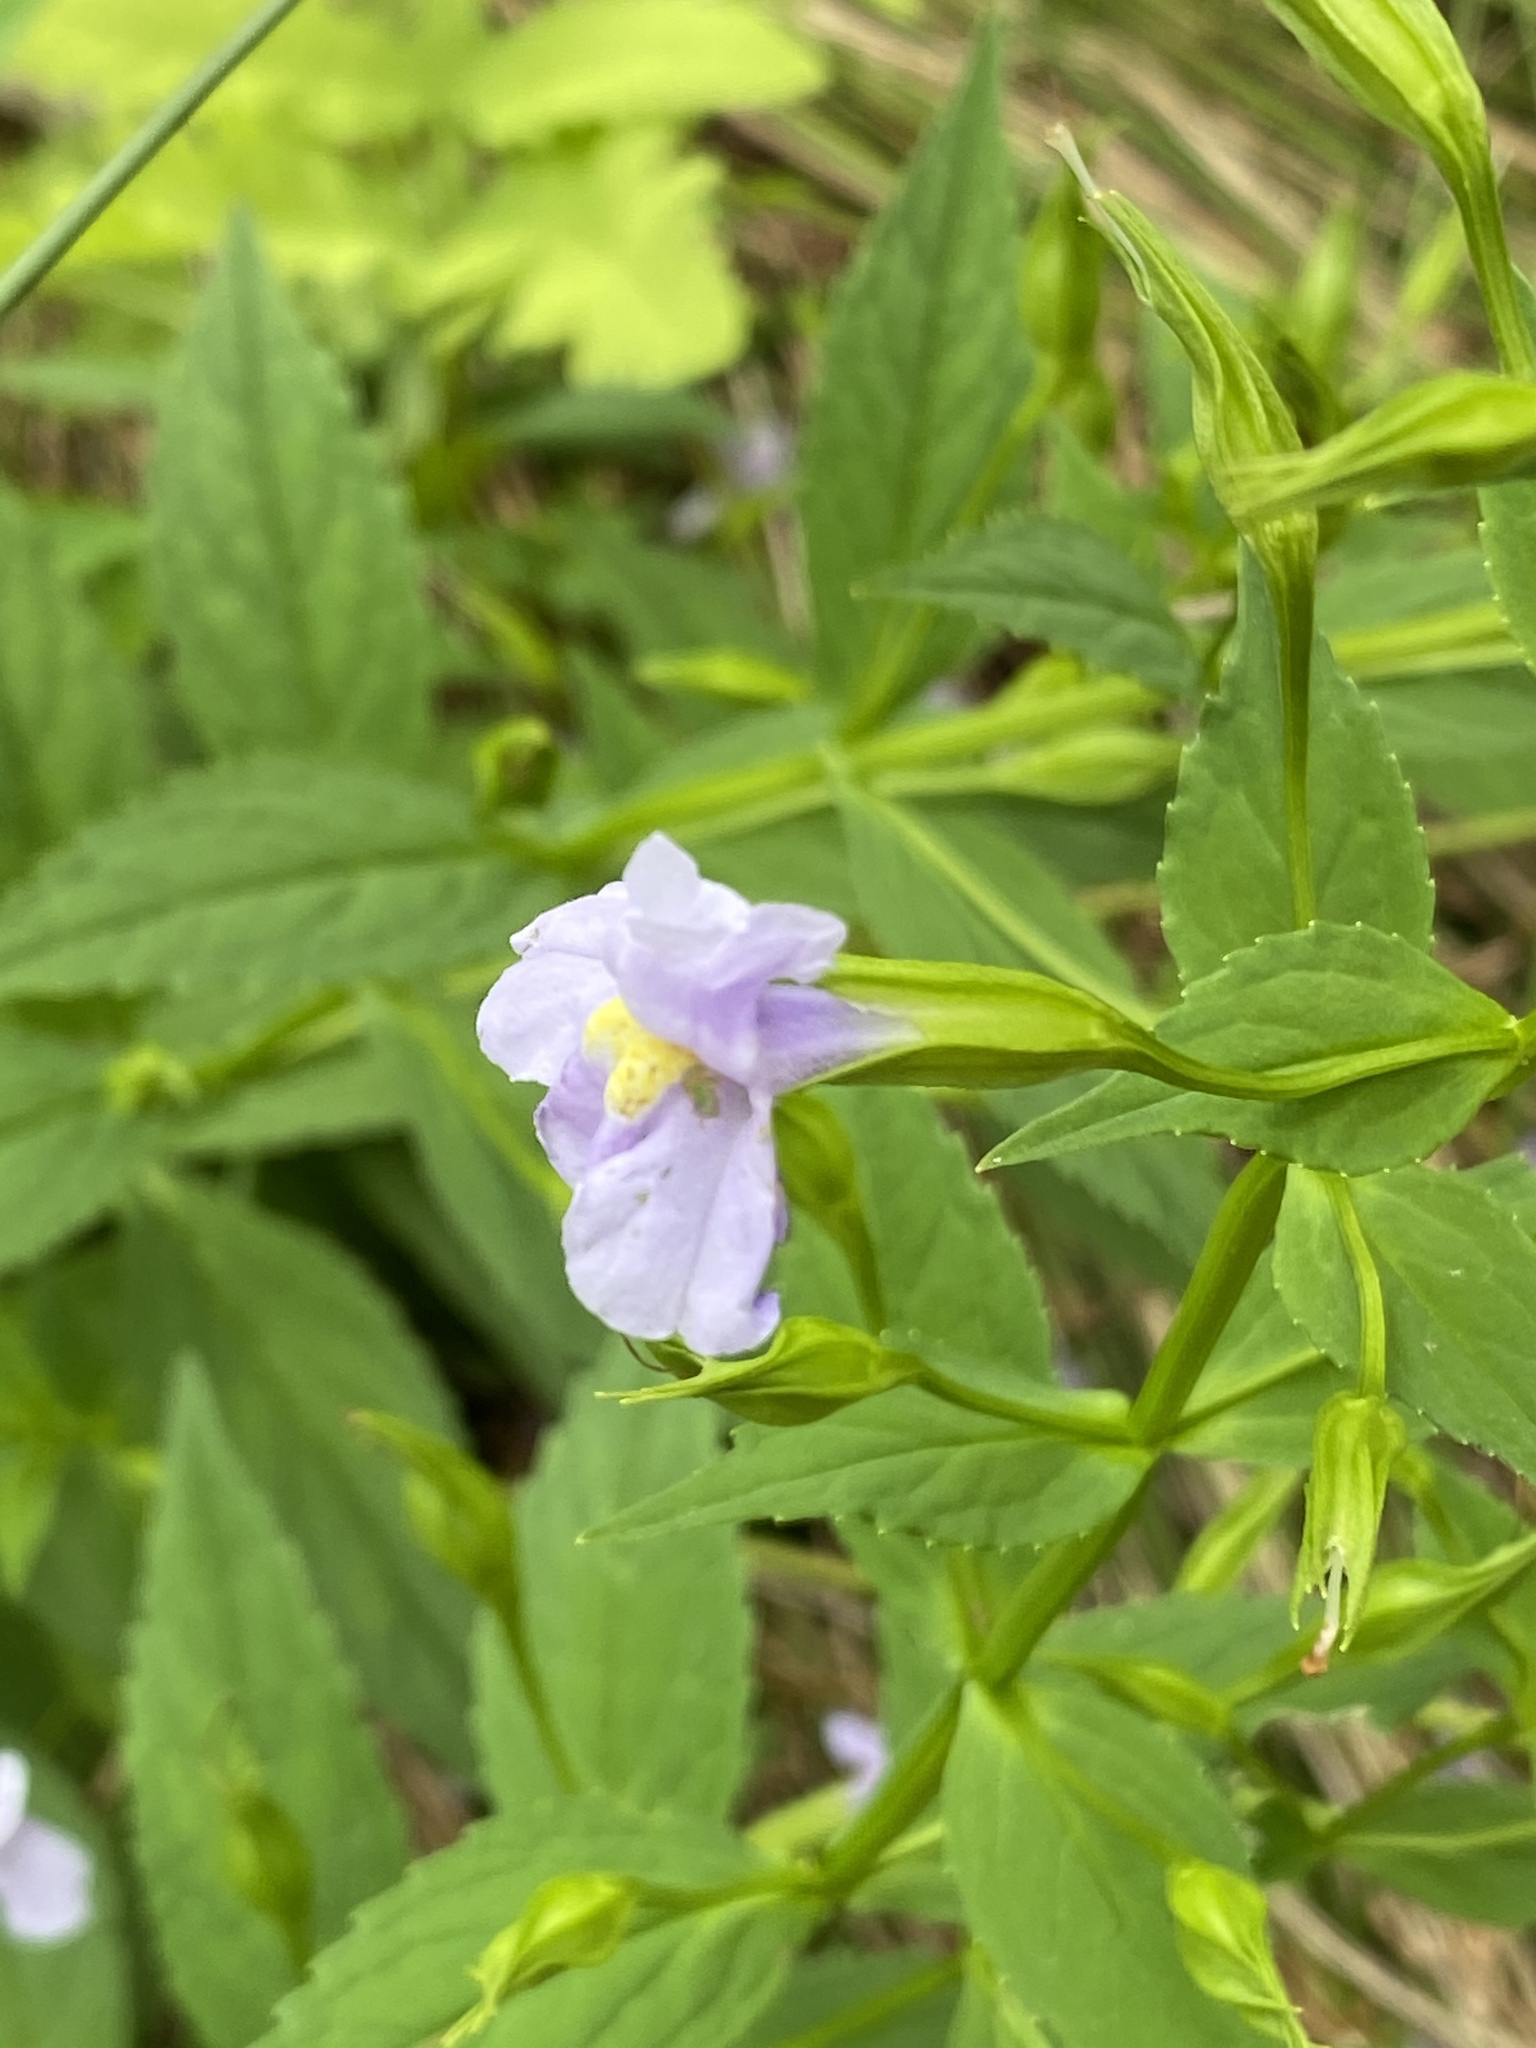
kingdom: Plantae
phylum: Tracheophyta
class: Magnoliopsida
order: Lamiales
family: Phrymaceae
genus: Mimulus
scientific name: Mimulus ringens
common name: Allegheny monkeyflower
